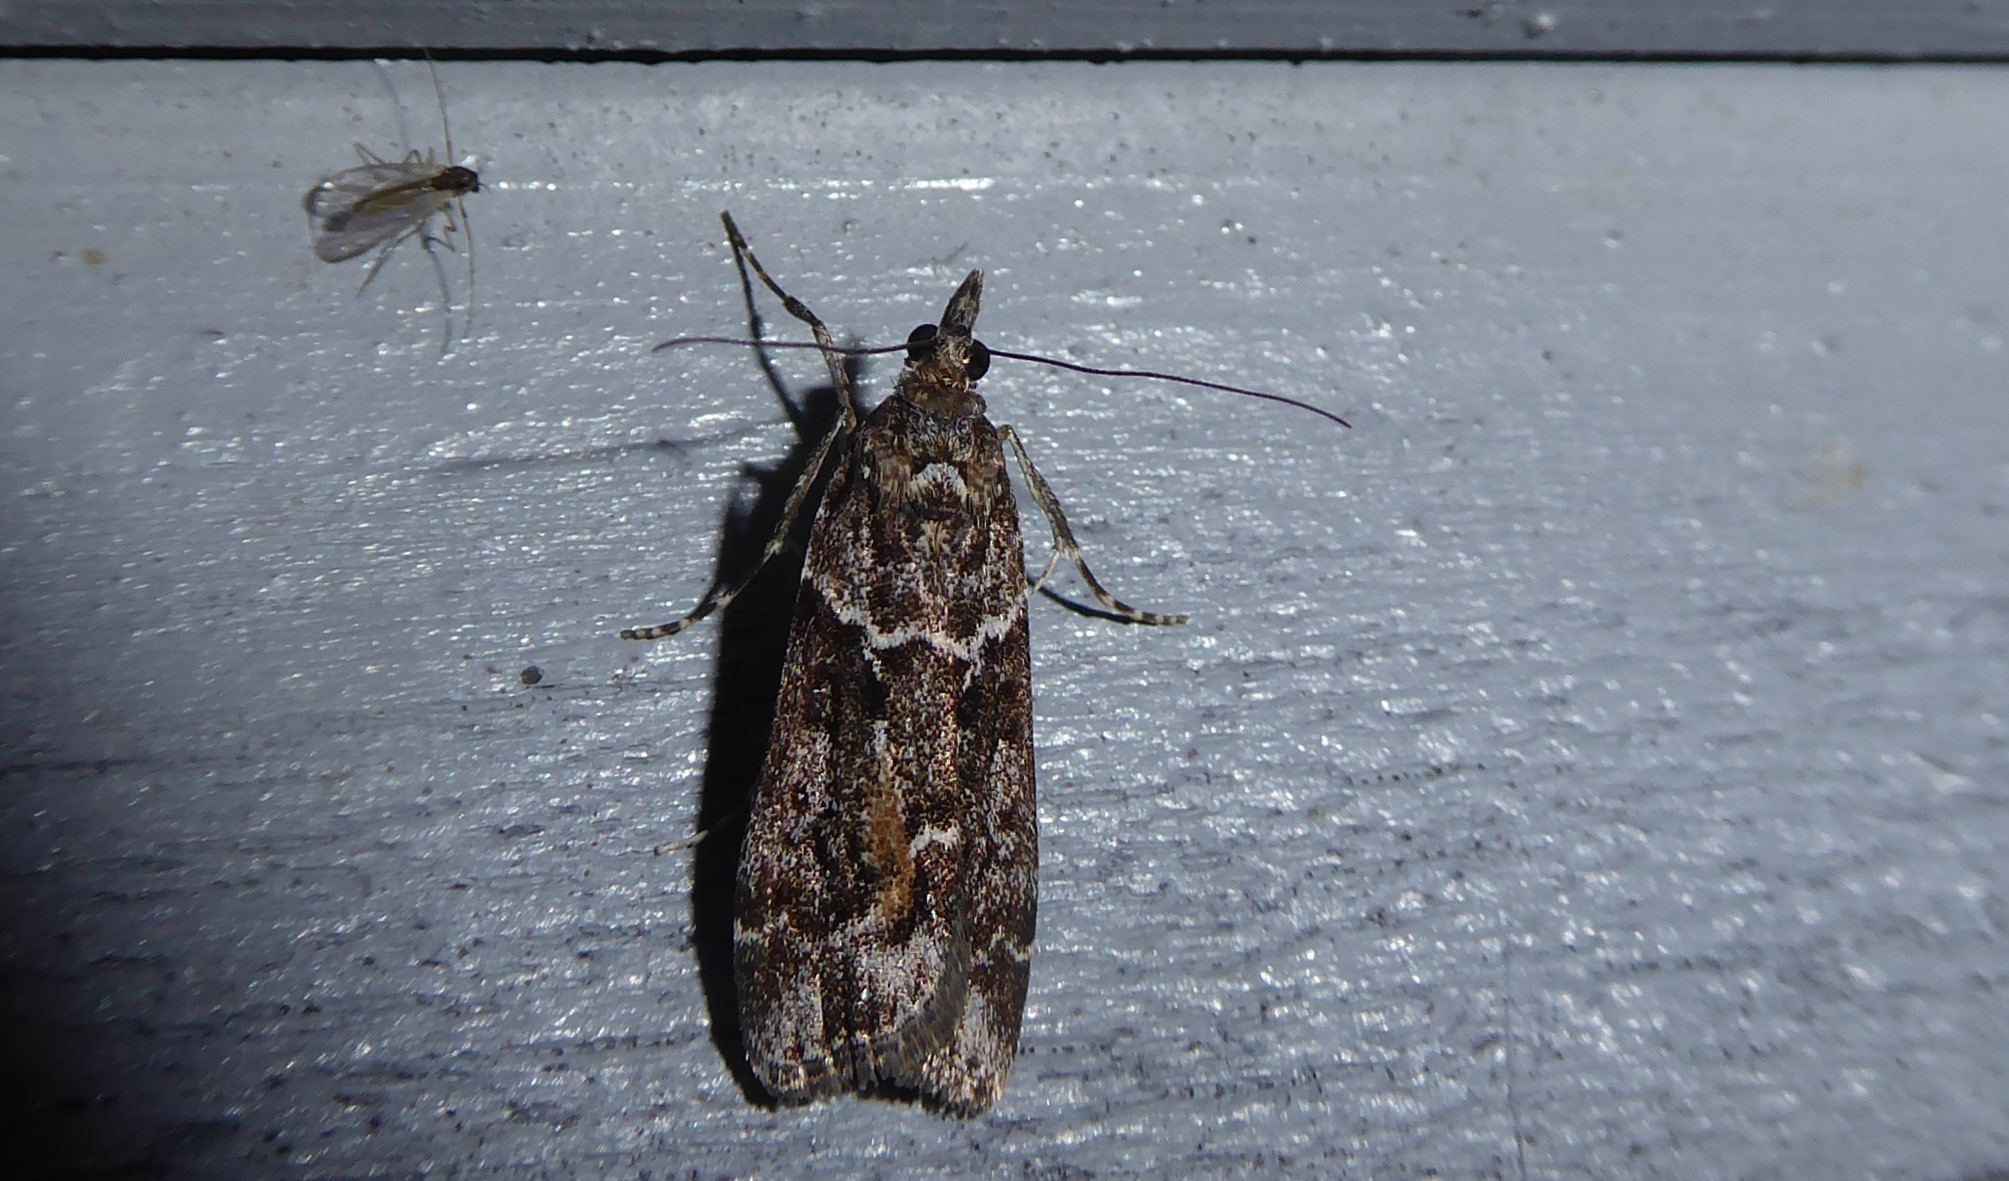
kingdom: Animalia
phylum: Arthropoda
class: Insecta
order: Lepidoptera
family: Crambidae
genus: Eudonia
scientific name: Eudonia submarginalis
